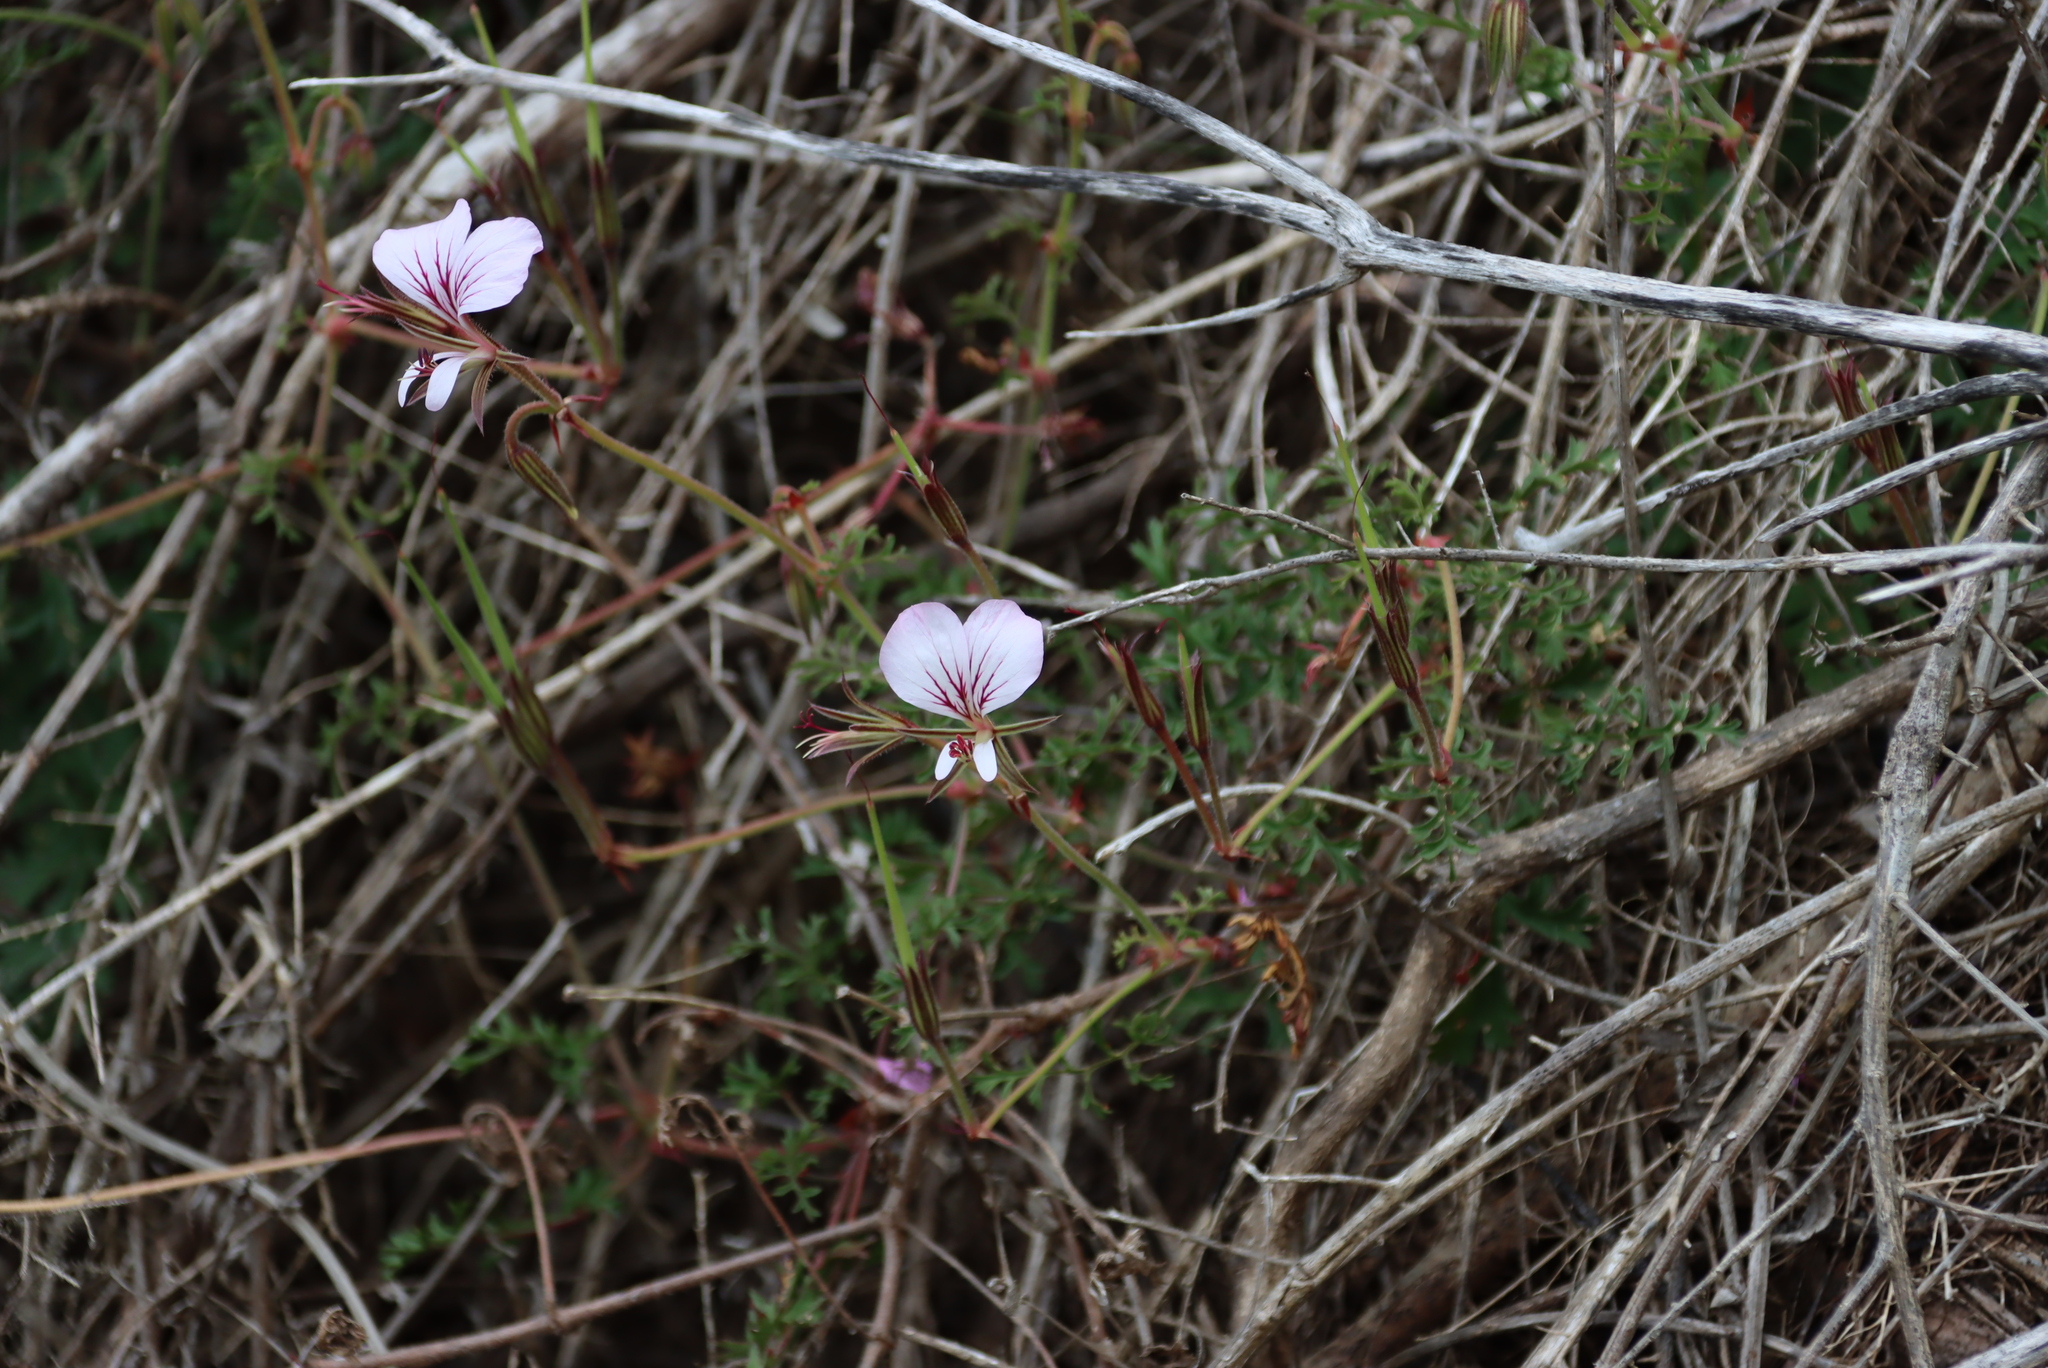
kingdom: Plantae
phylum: Tracheophyta
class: Magnoliopsida
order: Geraniales
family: Geraniaceae
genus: Pelargonium
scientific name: Pelargonium longicaule
